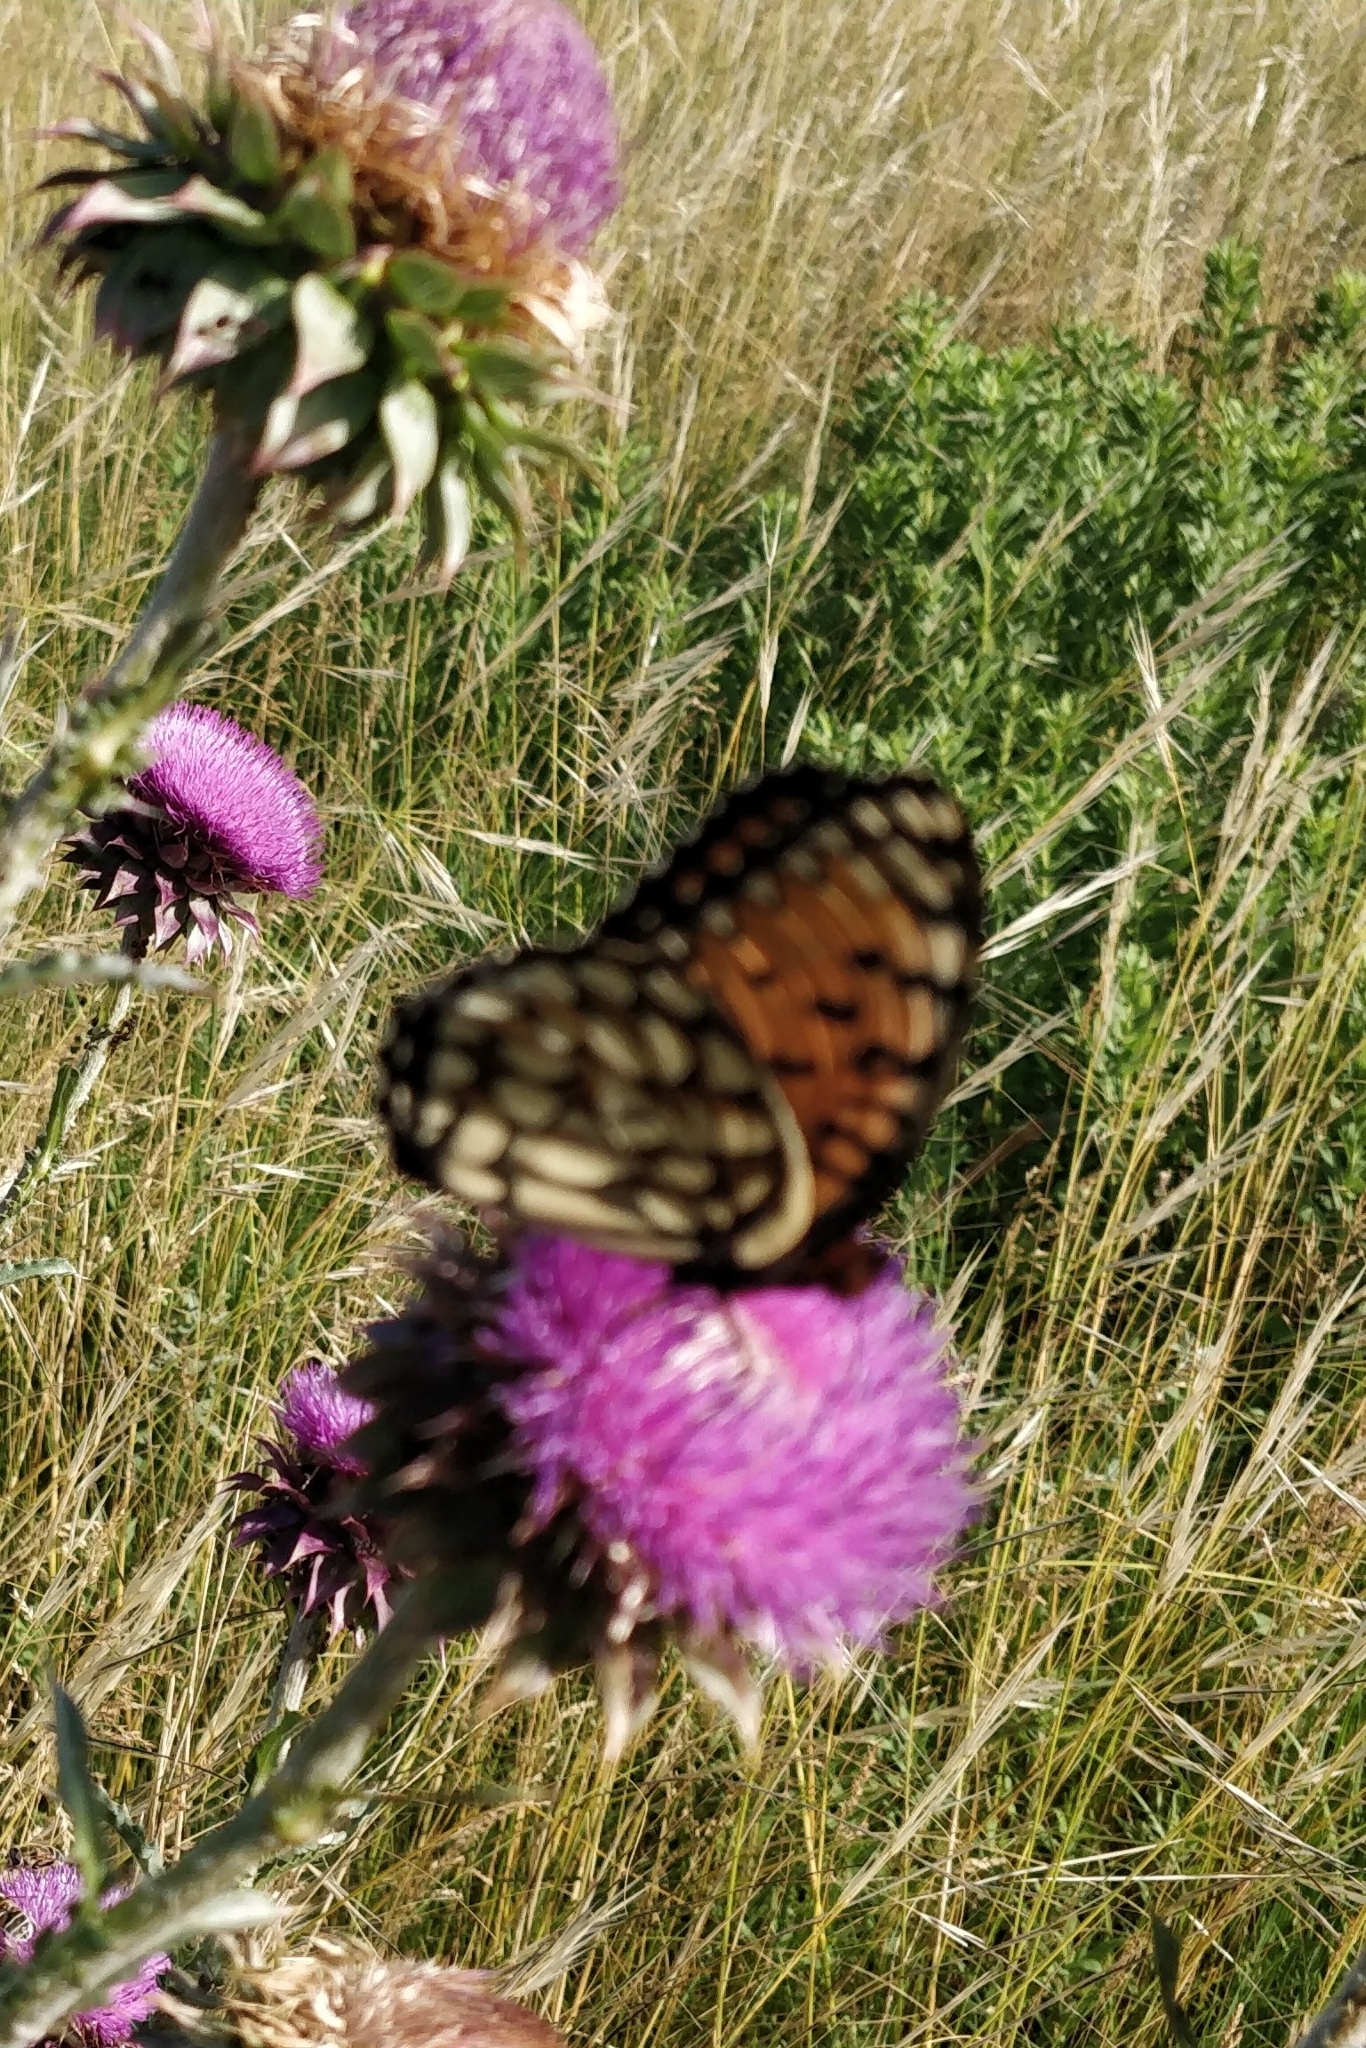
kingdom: Animalia
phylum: Arthropoda
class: Insecta
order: Lepidoptera
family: Nymphalidae
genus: Speyeria
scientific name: Speyeria idalia
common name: Regal fritillary
